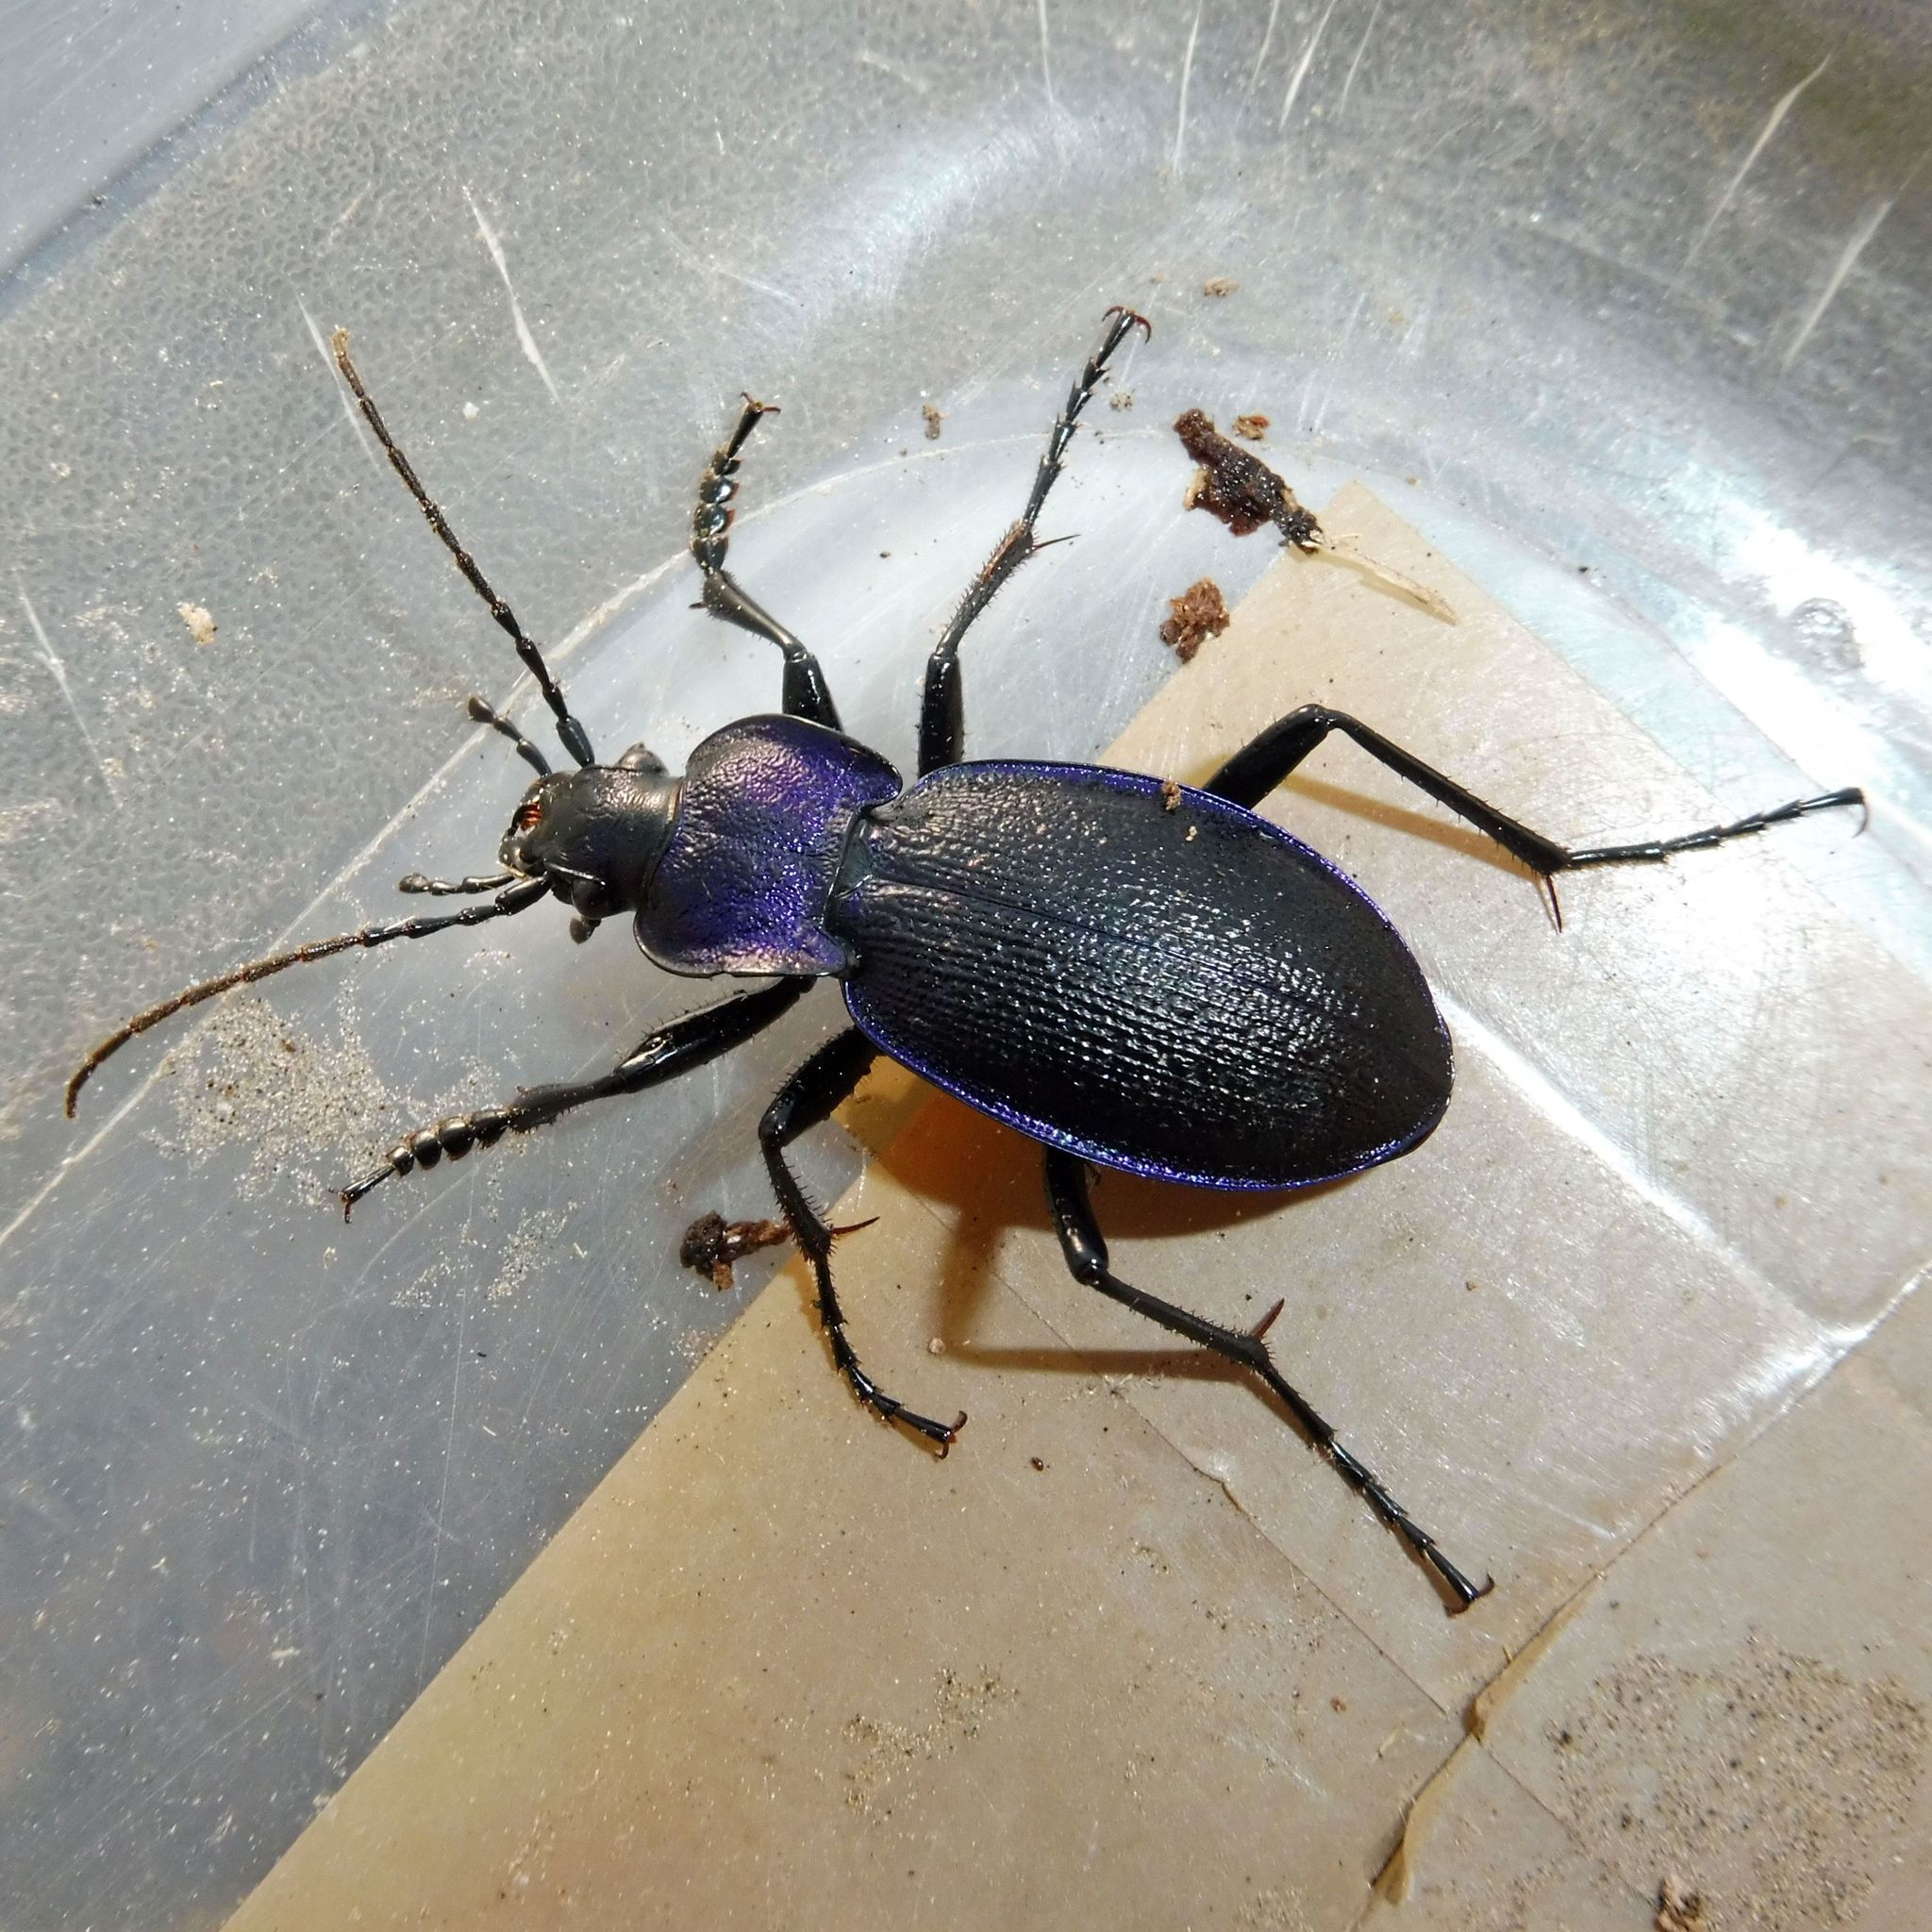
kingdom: Animalia
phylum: Arthropoda
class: Insecta
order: Coleoptera
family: Carabidae
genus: Carabus
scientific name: Carabus problematicus
